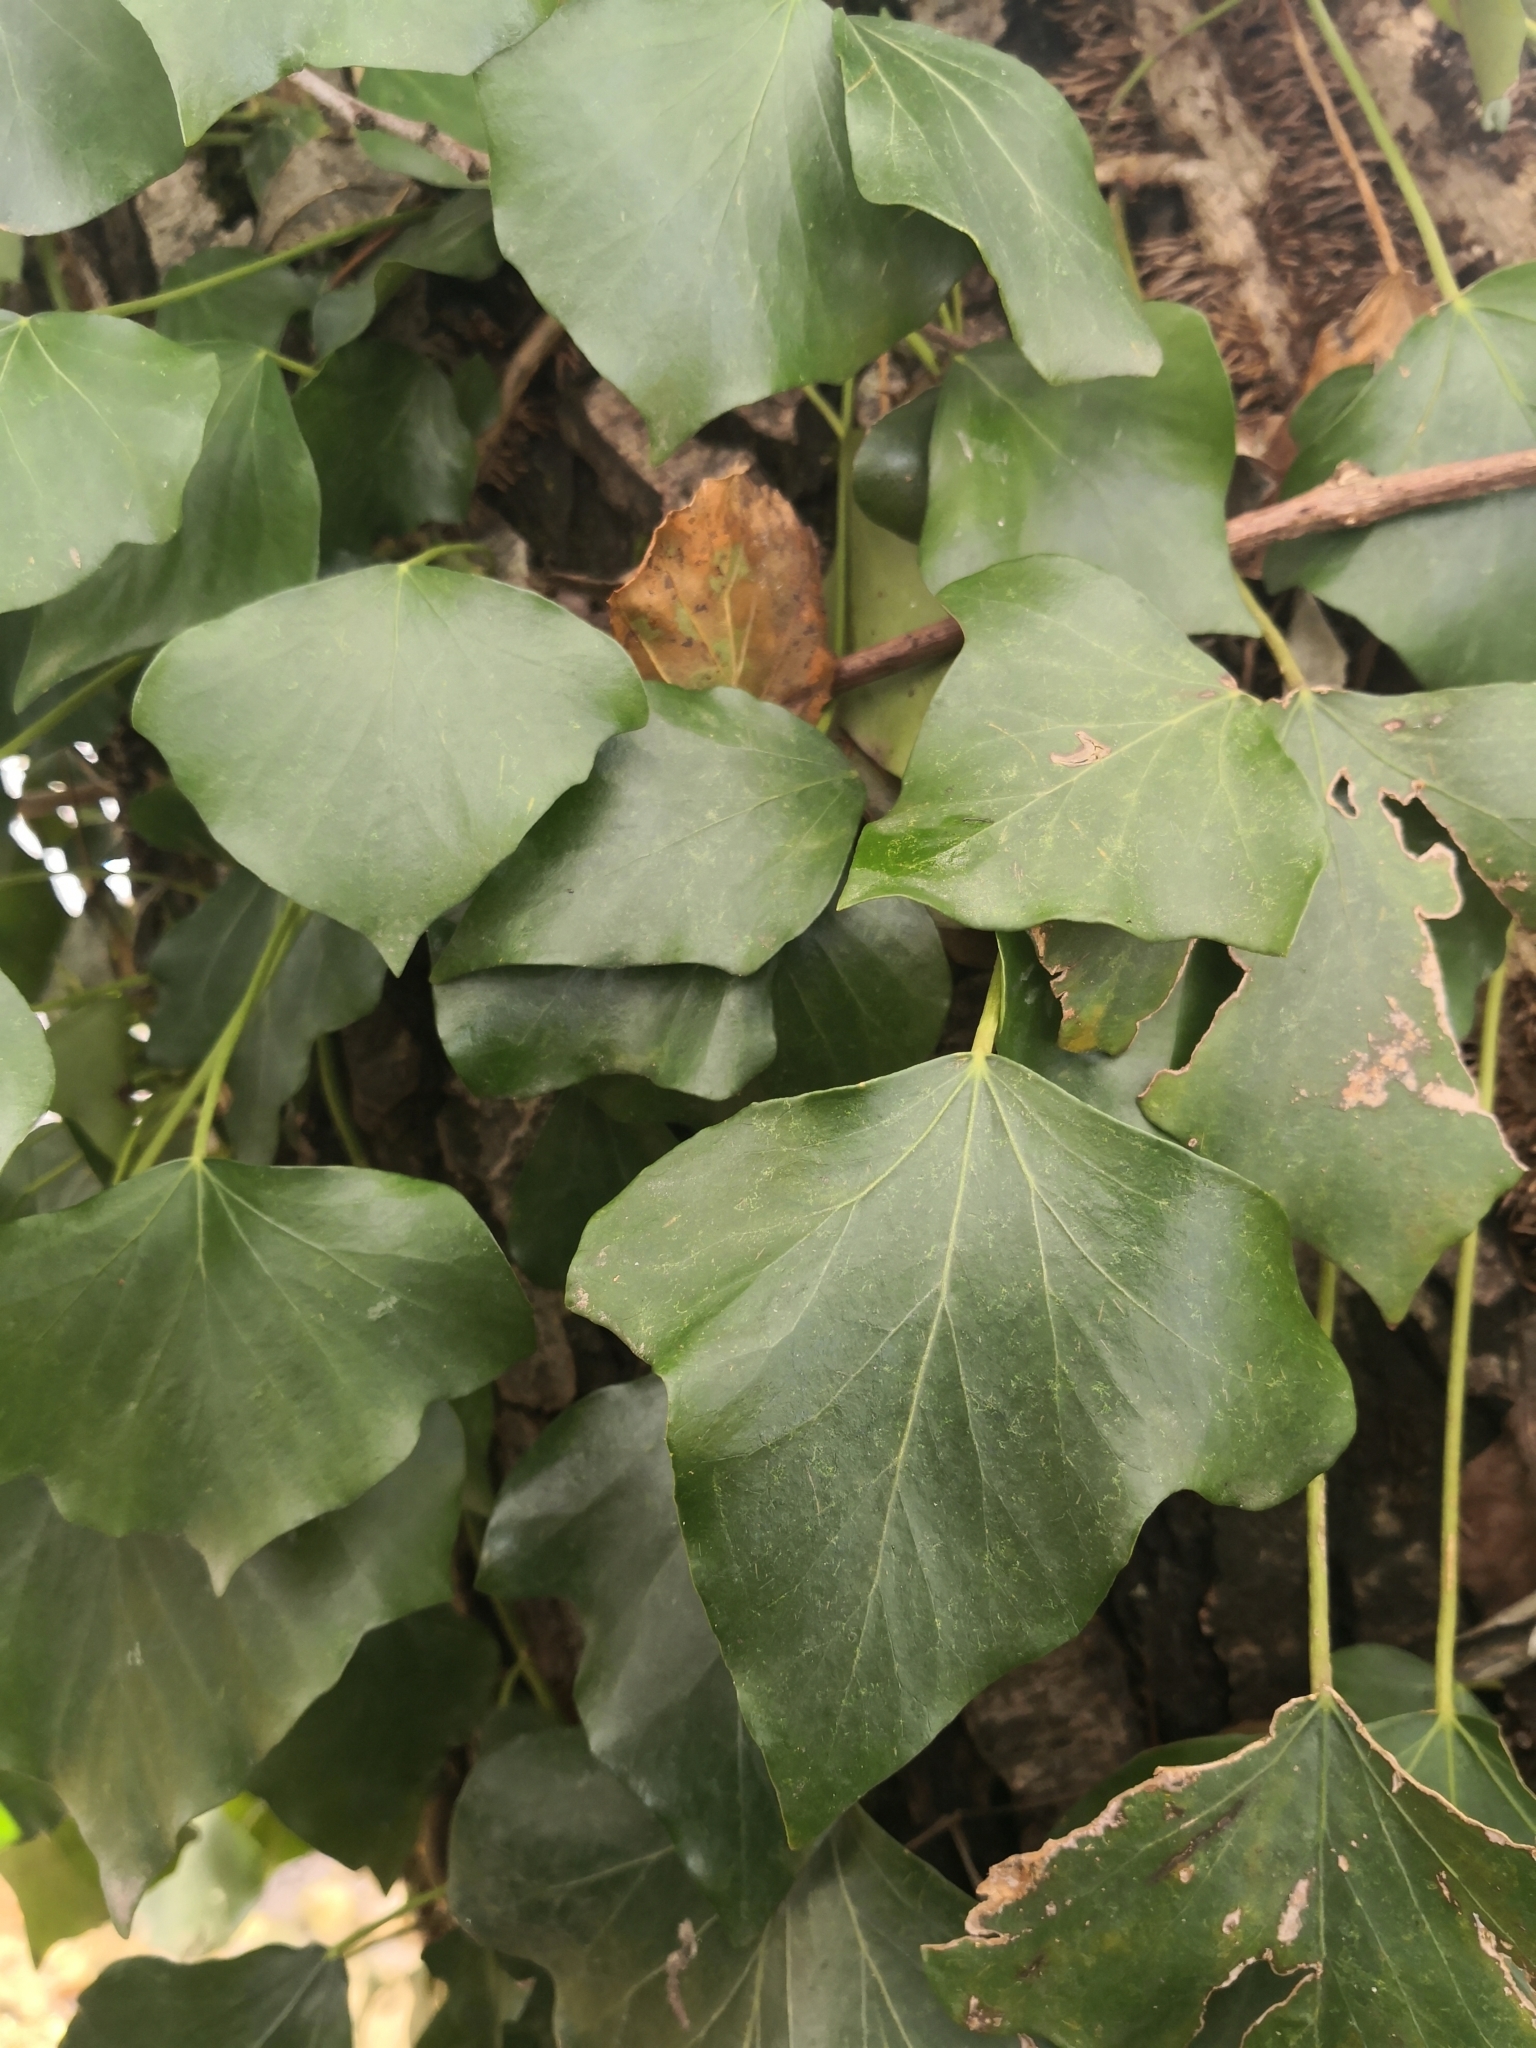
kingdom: Plantae
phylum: Tracheophyta
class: Magnoliopsida
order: Apiales
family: Araliaceae
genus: Hedera
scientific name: Hedera helix
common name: Ivy
